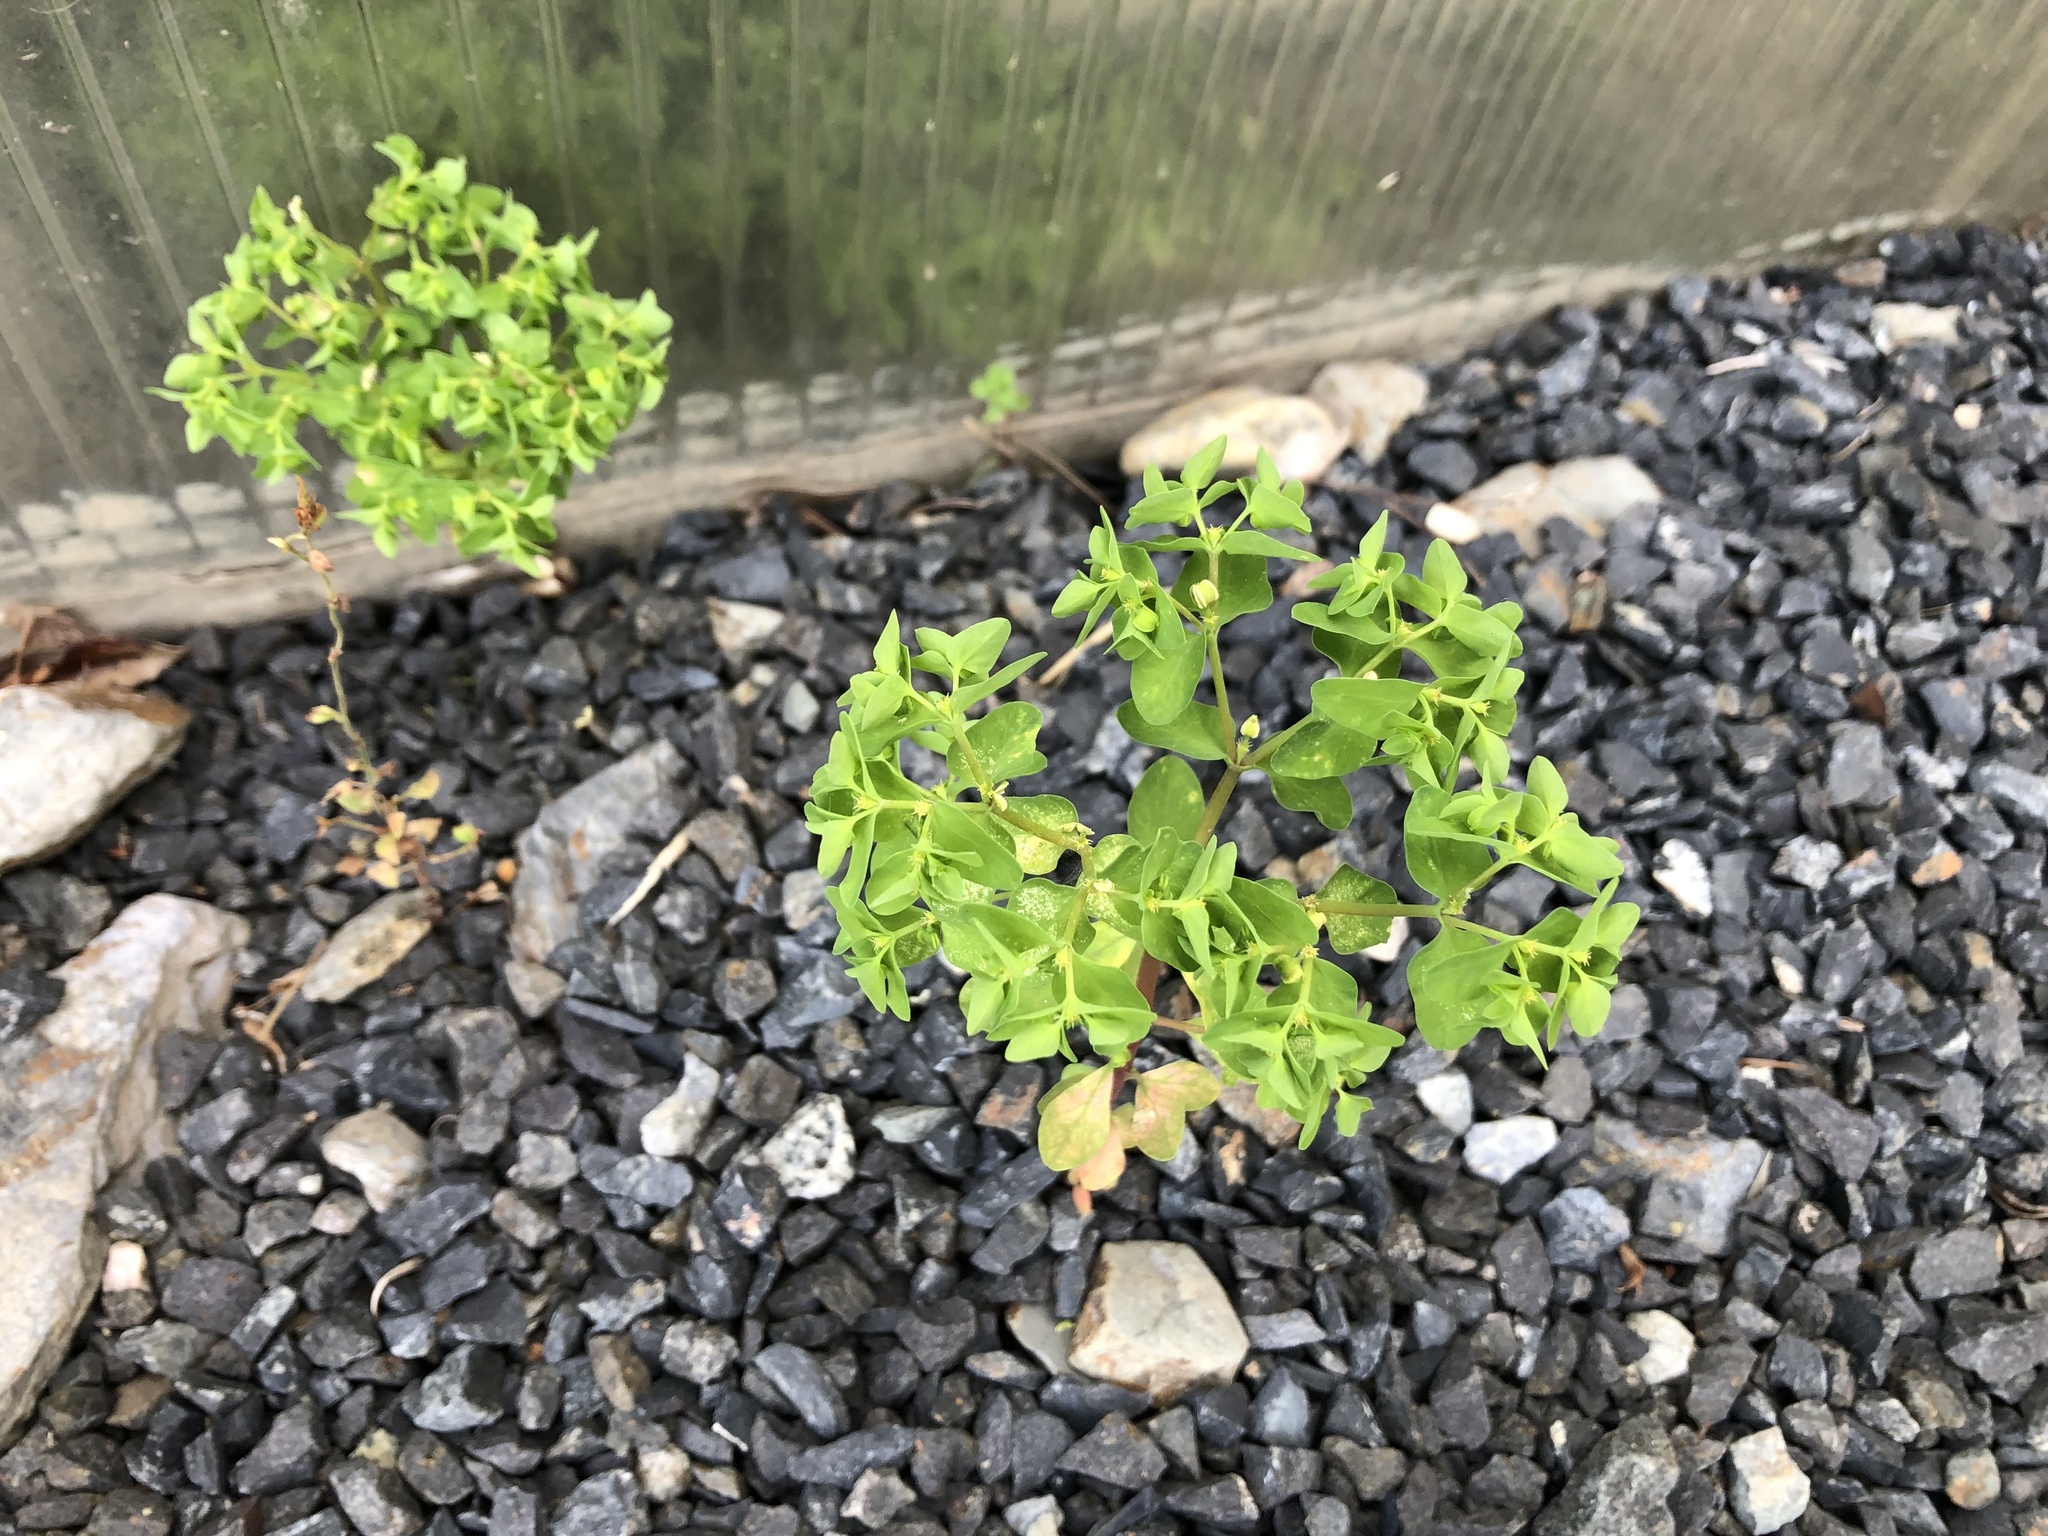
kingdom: Plantae
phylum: Tracheophyta
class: Magnoliopsida
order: Malpighiales
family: Euphorbiaceae
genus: Euphorbia
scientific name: Euphorbia peplus
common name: Petty spurge
